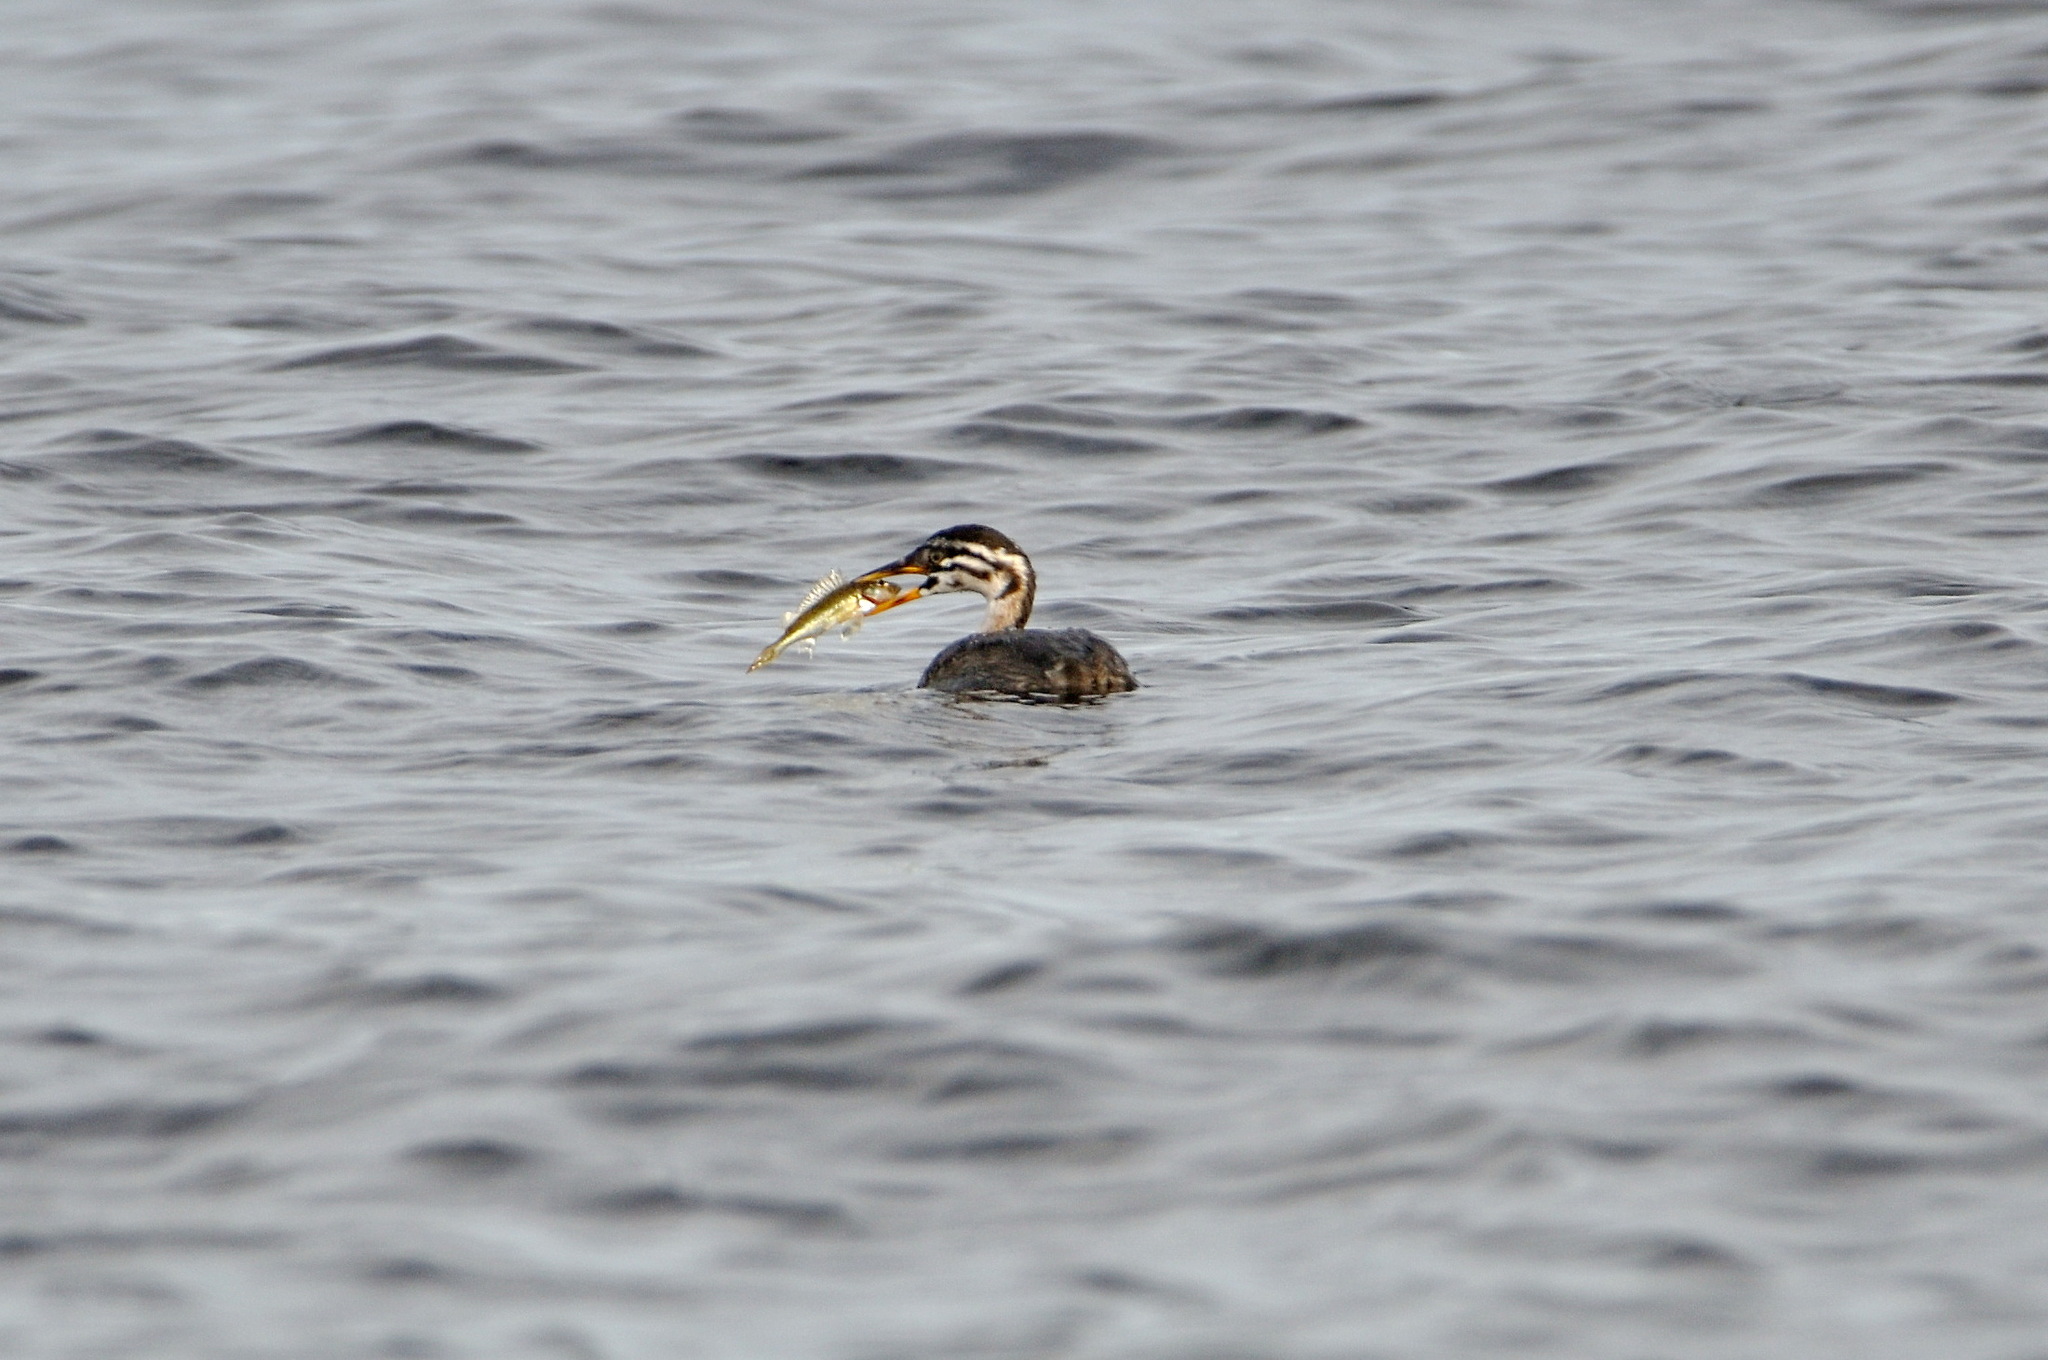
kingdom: Animalia
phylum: Chordata
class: Aves
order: Podicipediformes
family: Podicipedidae
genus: Podiceps
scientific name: Podiceps cristatus
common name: Great crested grebe
